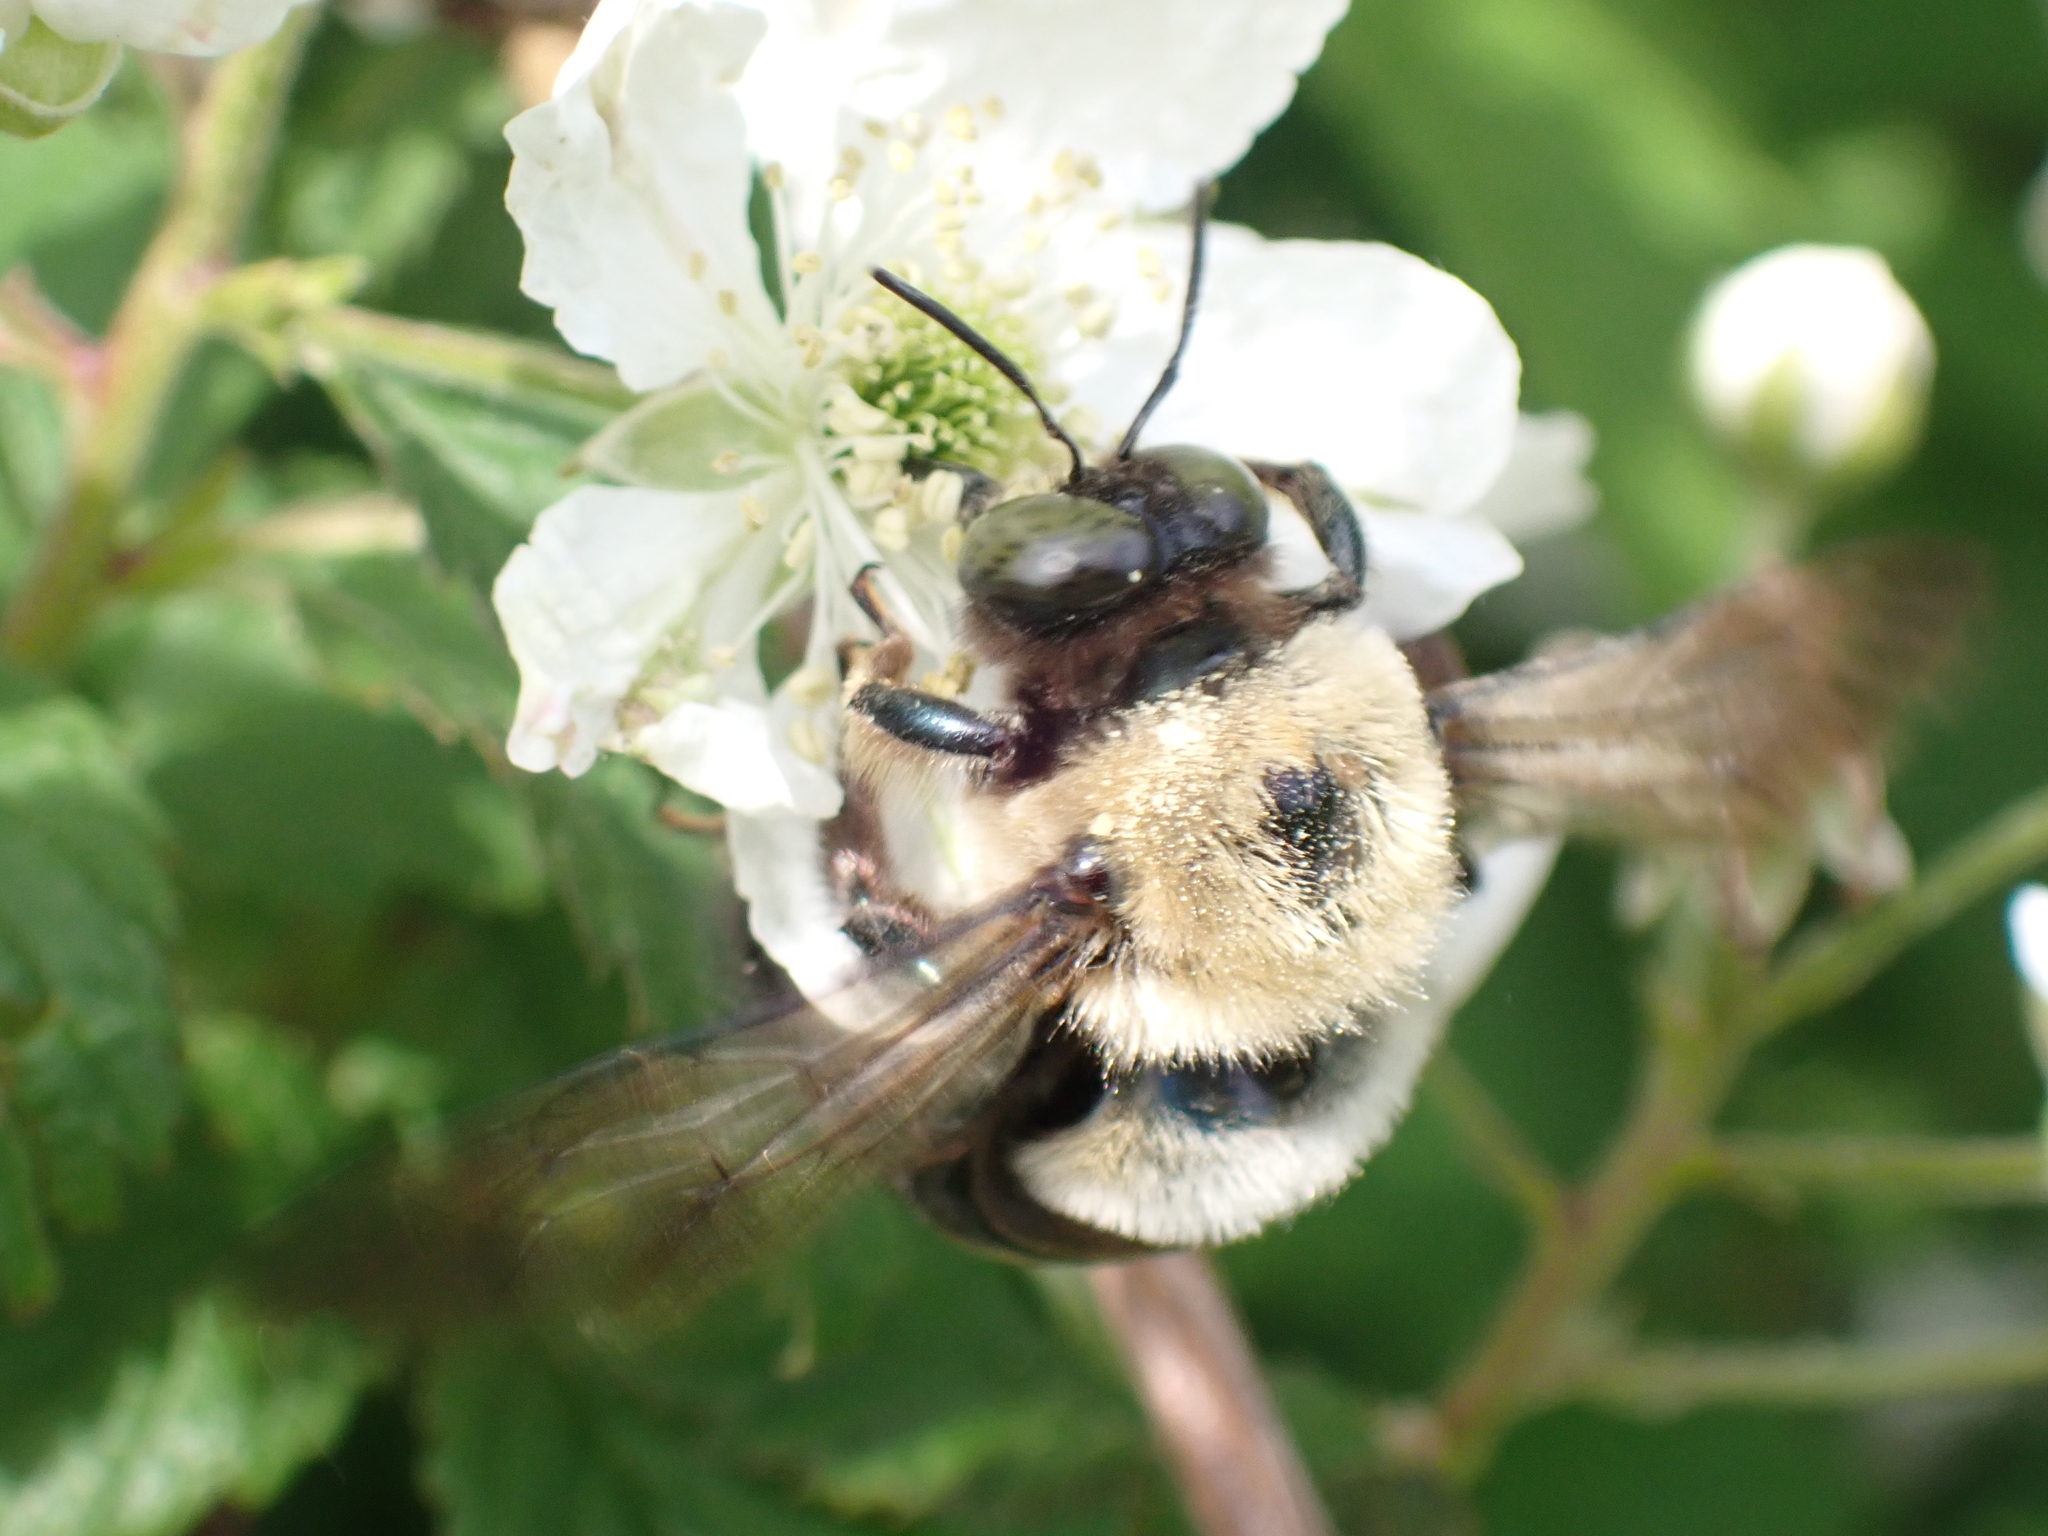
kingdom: Animalia
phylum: Arthropoda
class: Insecta
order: Hymenoptera
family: Apidae
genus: Xylocopa
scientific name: Xylocopa virginica
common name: Carpenter bee
